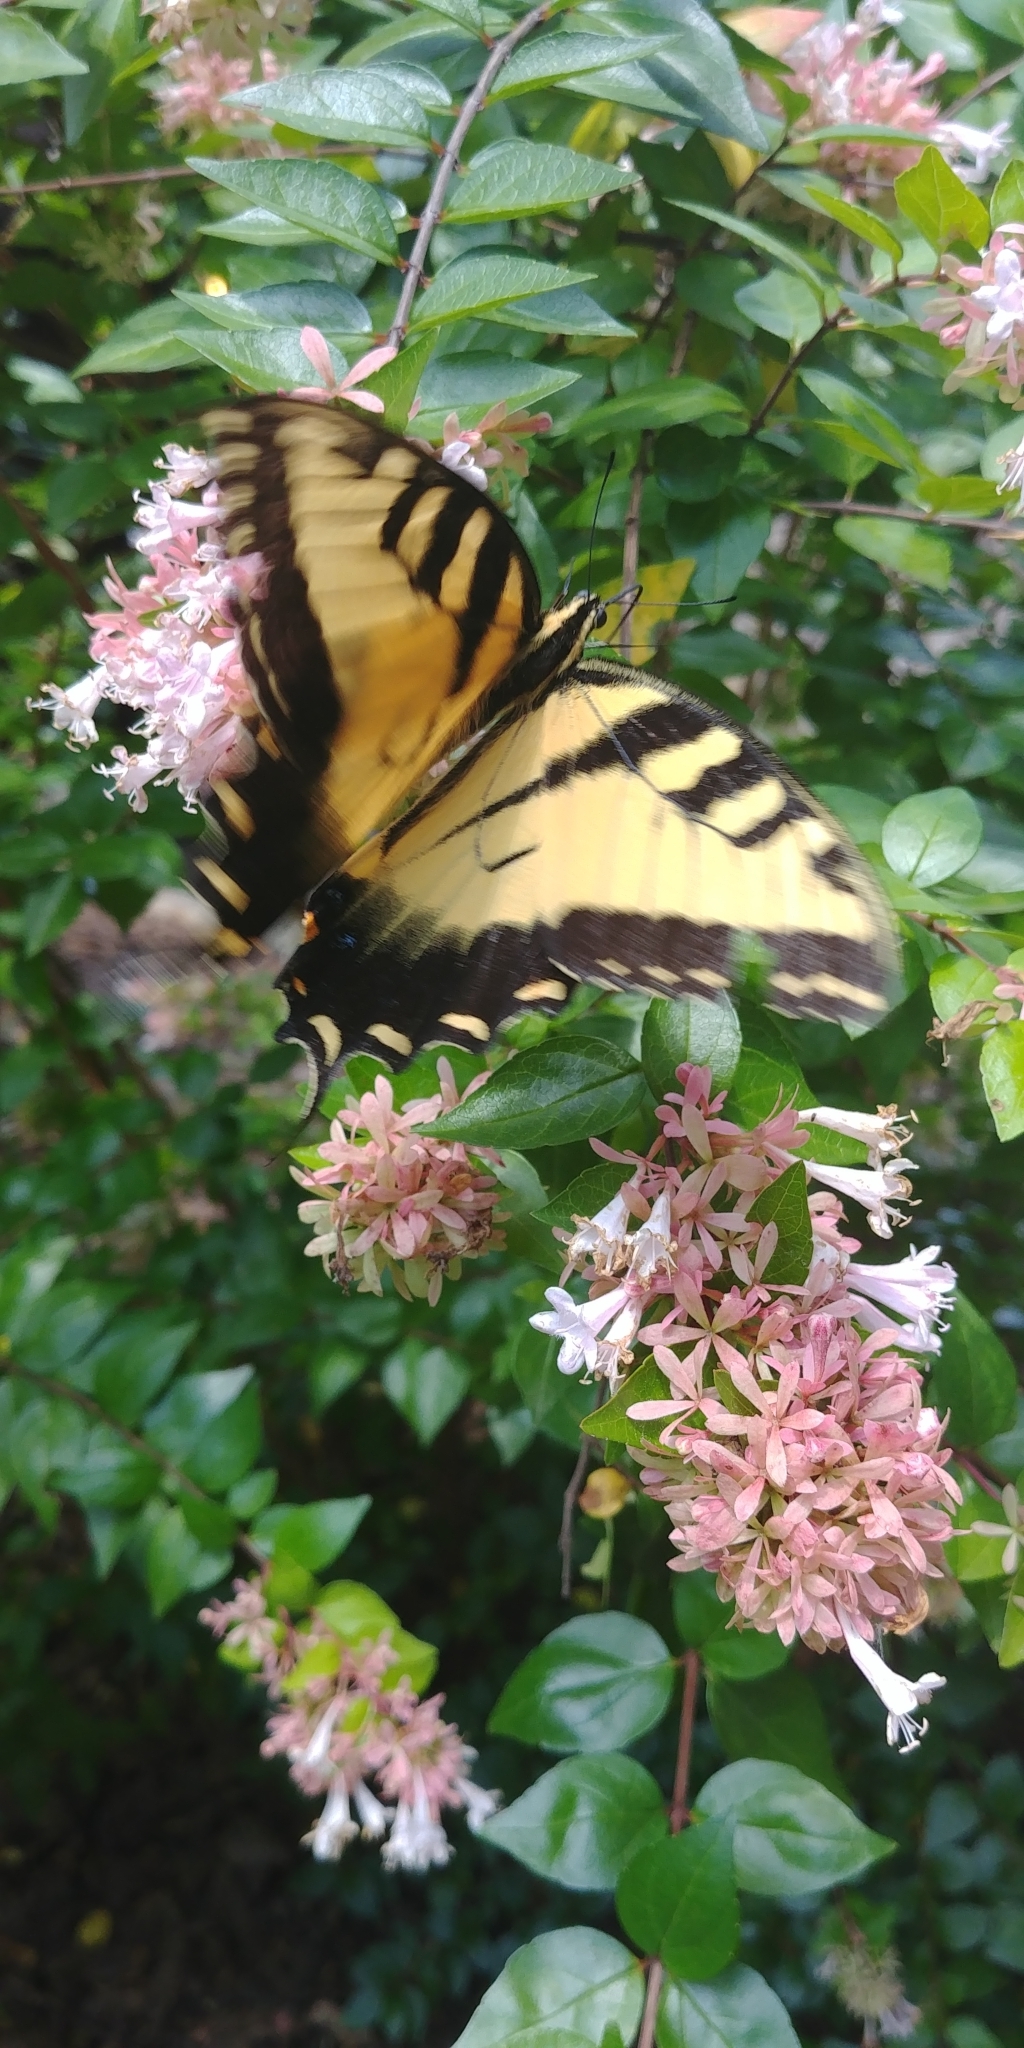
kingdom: Animalia
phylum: Arthropoda
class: Insecta
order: Lepidoptera
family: Papilionidae
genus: Papilio
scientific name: Papilio glaucus
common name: Tiger swallowtail
